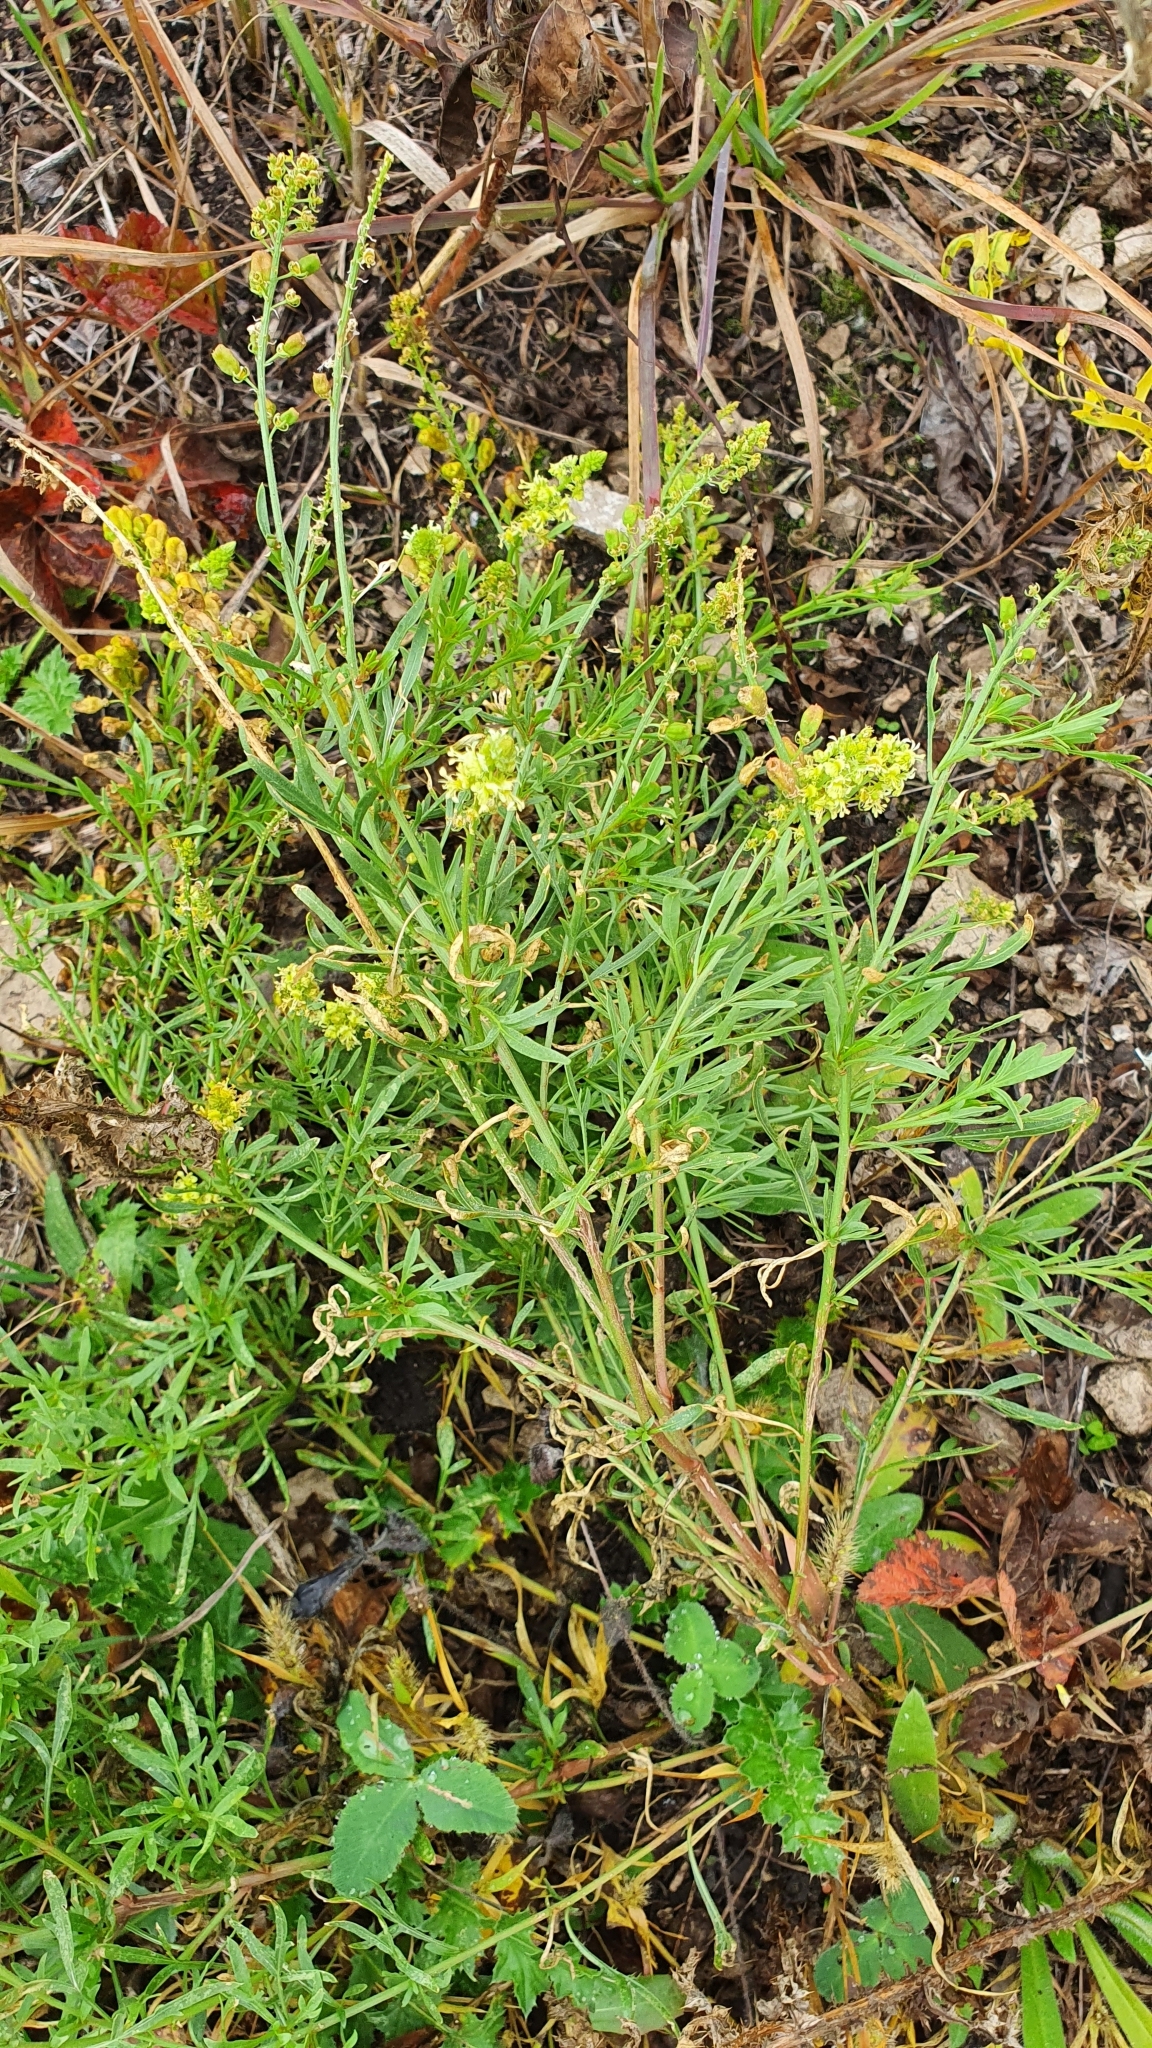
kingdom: Plantae
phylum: Tracheophyta
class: Magnoliopsida
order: Brassicales
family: Resedaceae
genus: Reseda
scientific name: Reseda lutea
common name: Wild mignonette
